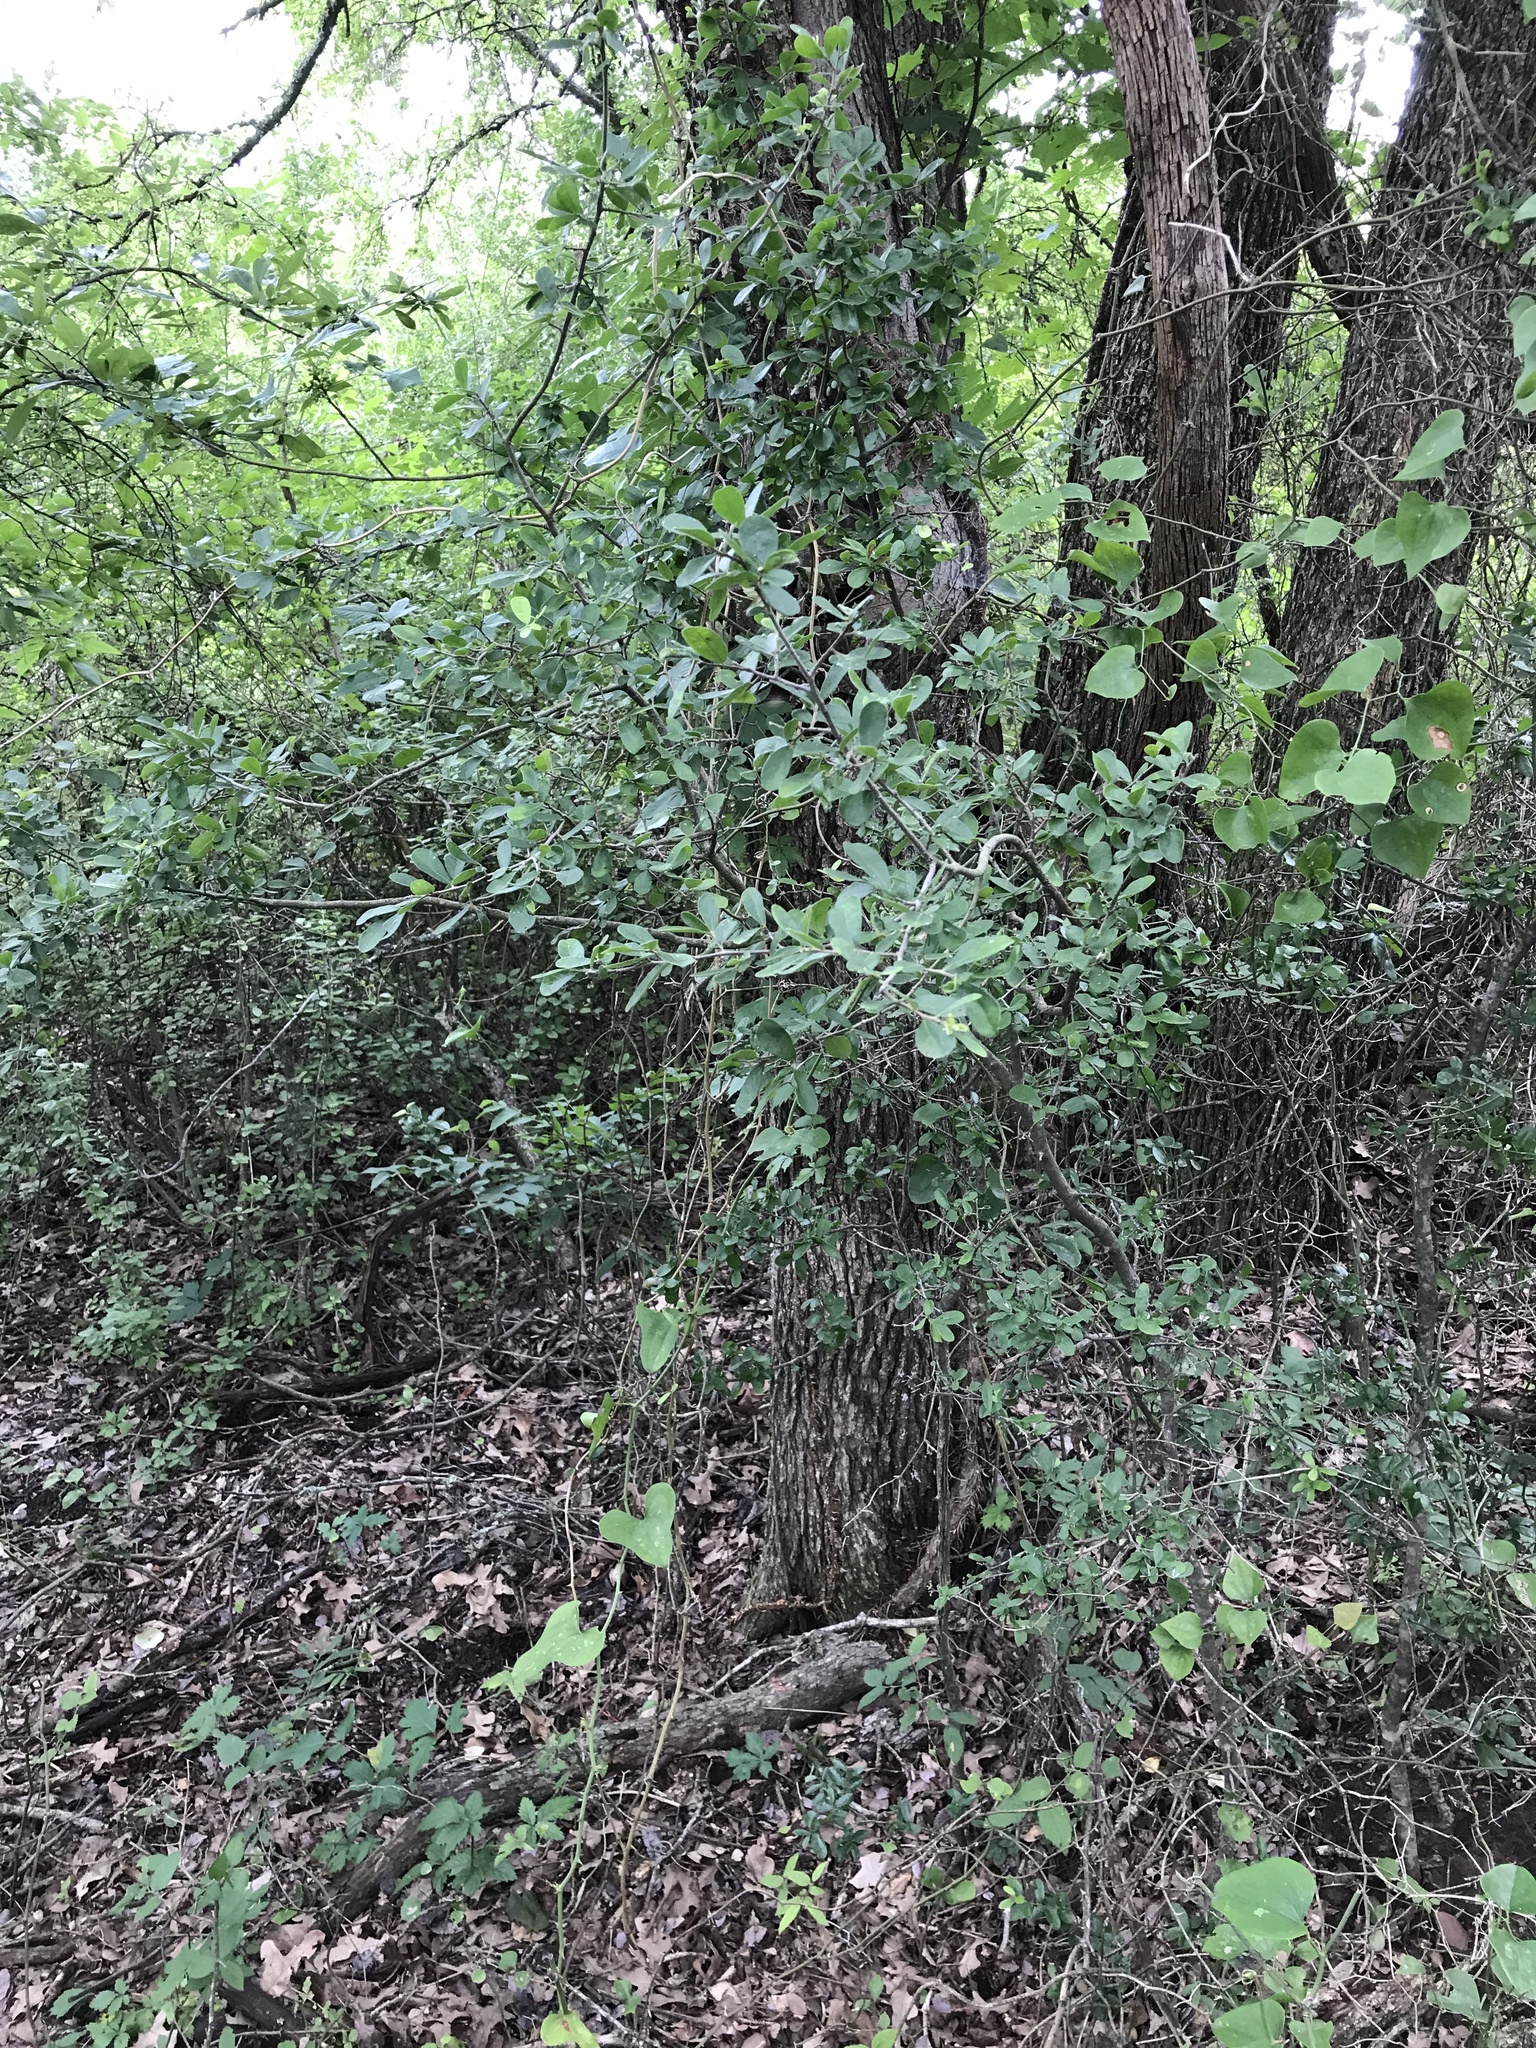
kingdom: Plantae
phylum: Tracheophyta
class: Magnoliopsida
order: Ericales
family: Ebenaceae
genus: Diospyros
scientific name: Diospyros texana
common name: Texas persimmon
